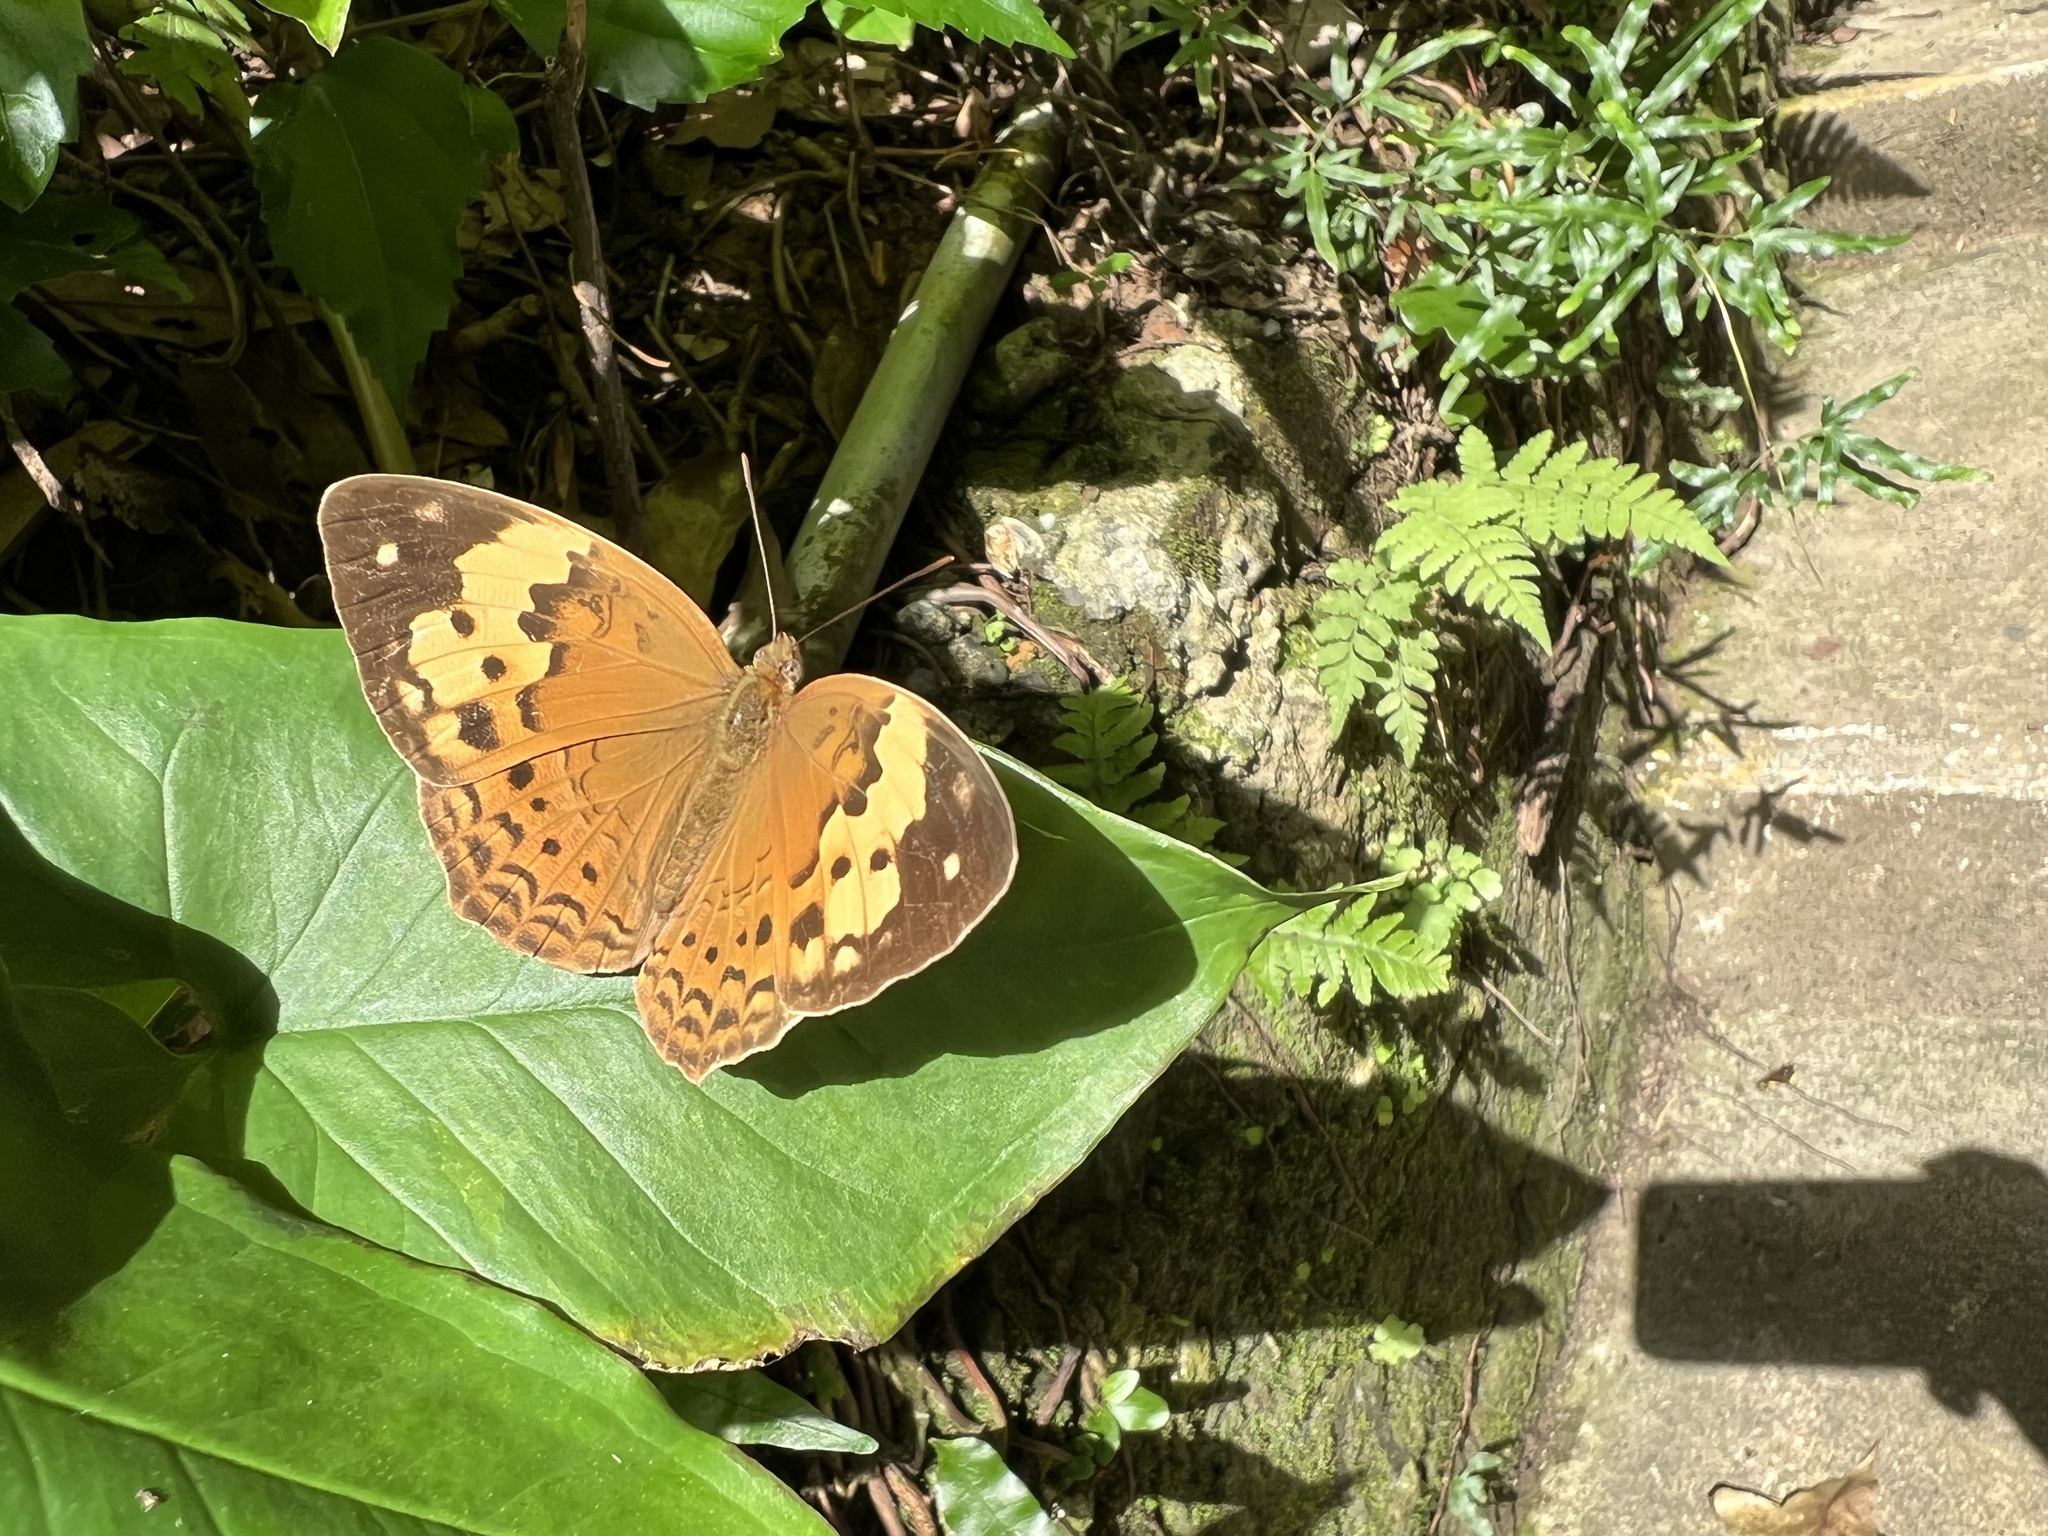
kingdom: Animalia
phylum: Arthropoda
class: Insecta
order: Lepidoptera
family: Nymphalidae
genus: Cupha
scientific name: Cupha erymanthis
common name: Rustic
